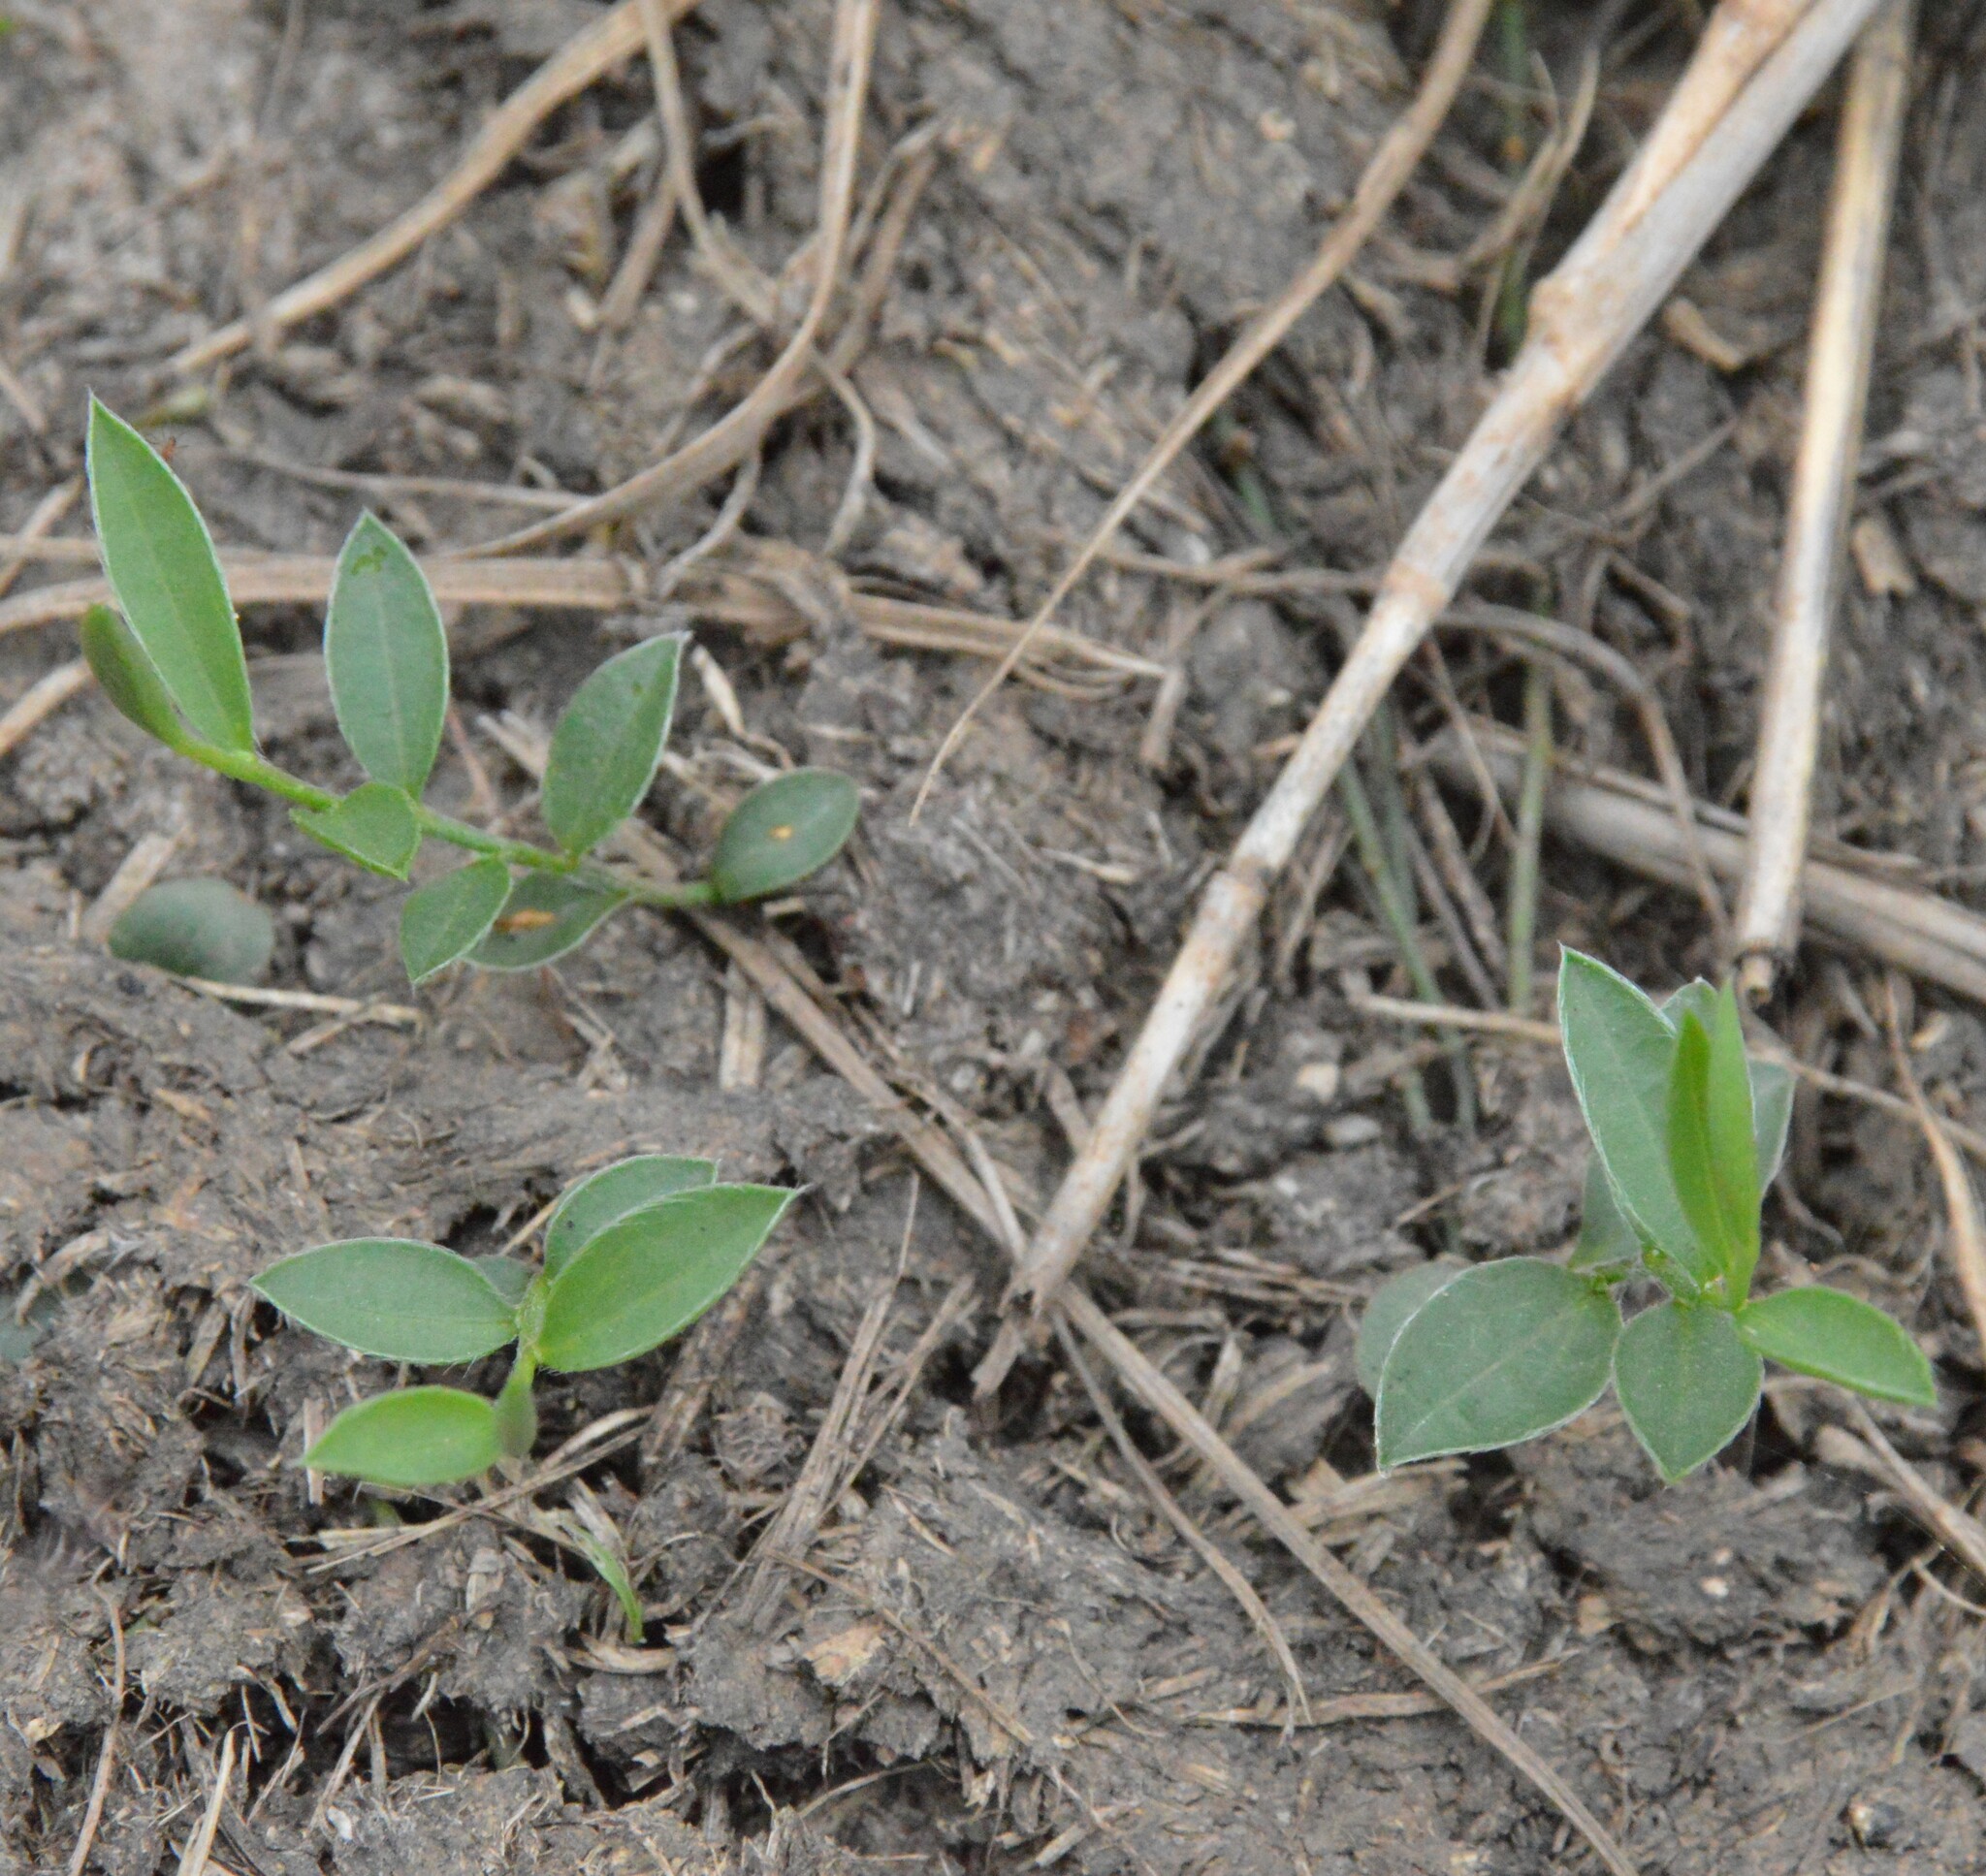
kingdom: Plantae
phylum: Tracheophyta
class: Magnoliopsida
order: Solanales
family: Convolvulaceae
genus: Evolvulus
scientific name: Evolvulus sericeus
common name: Blue dots
